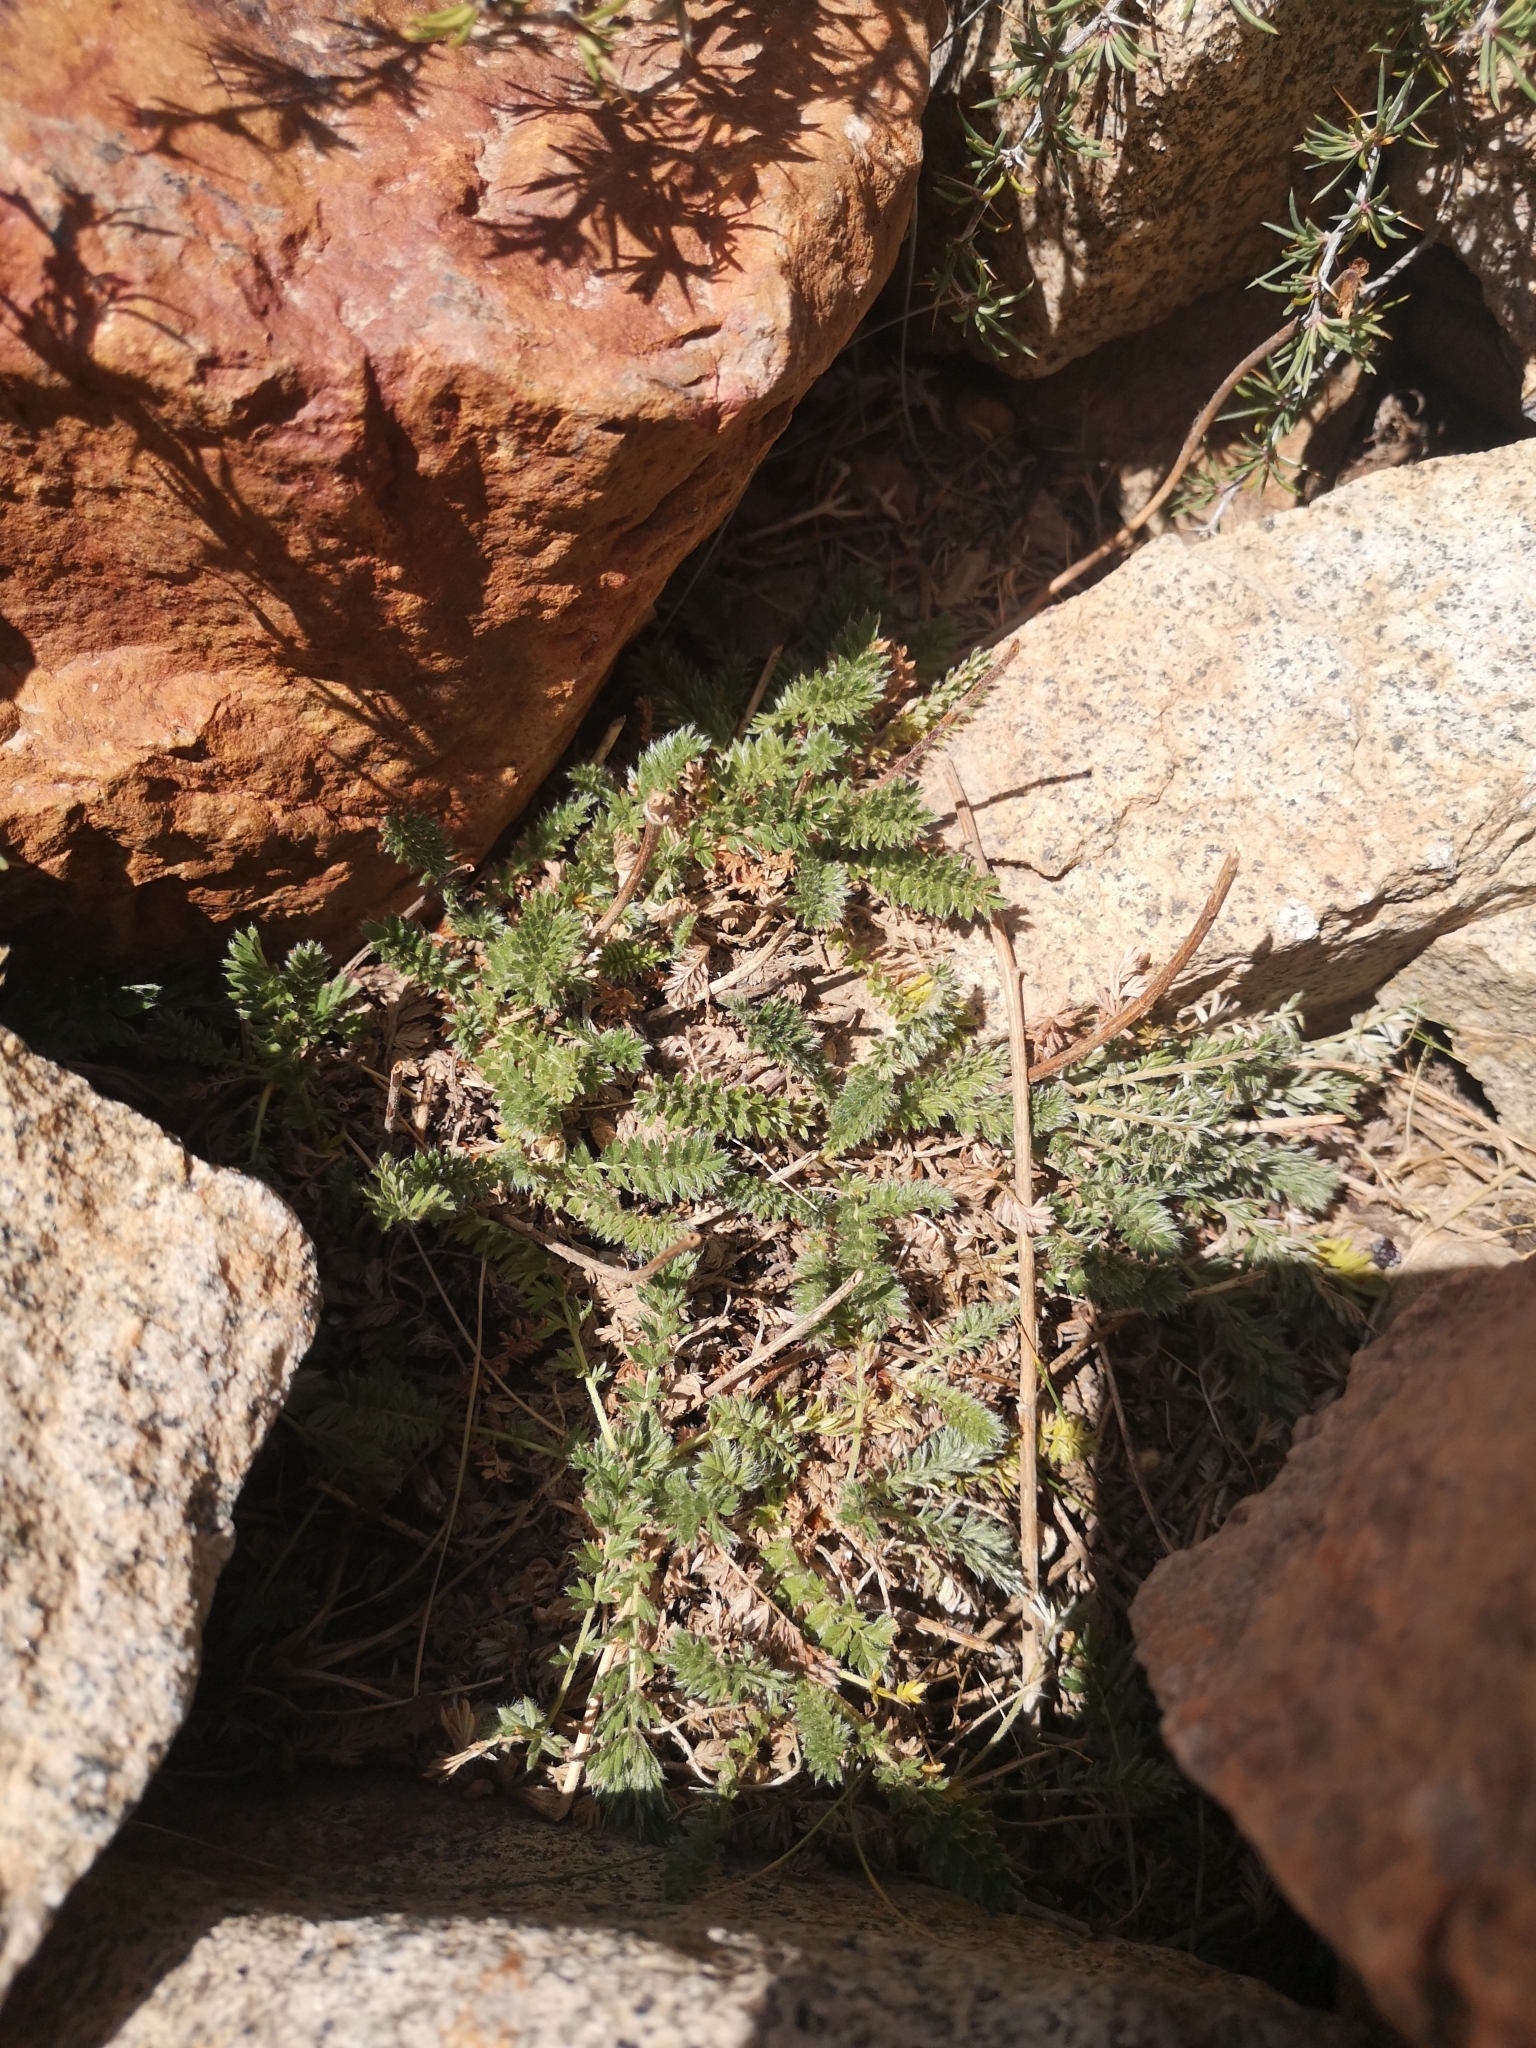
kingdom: Plantae
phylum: Tracheophyta
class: Magnoliopsida
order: Rosales
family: Rosaceae
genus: Acaena
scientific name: Acaena pinnatifida
